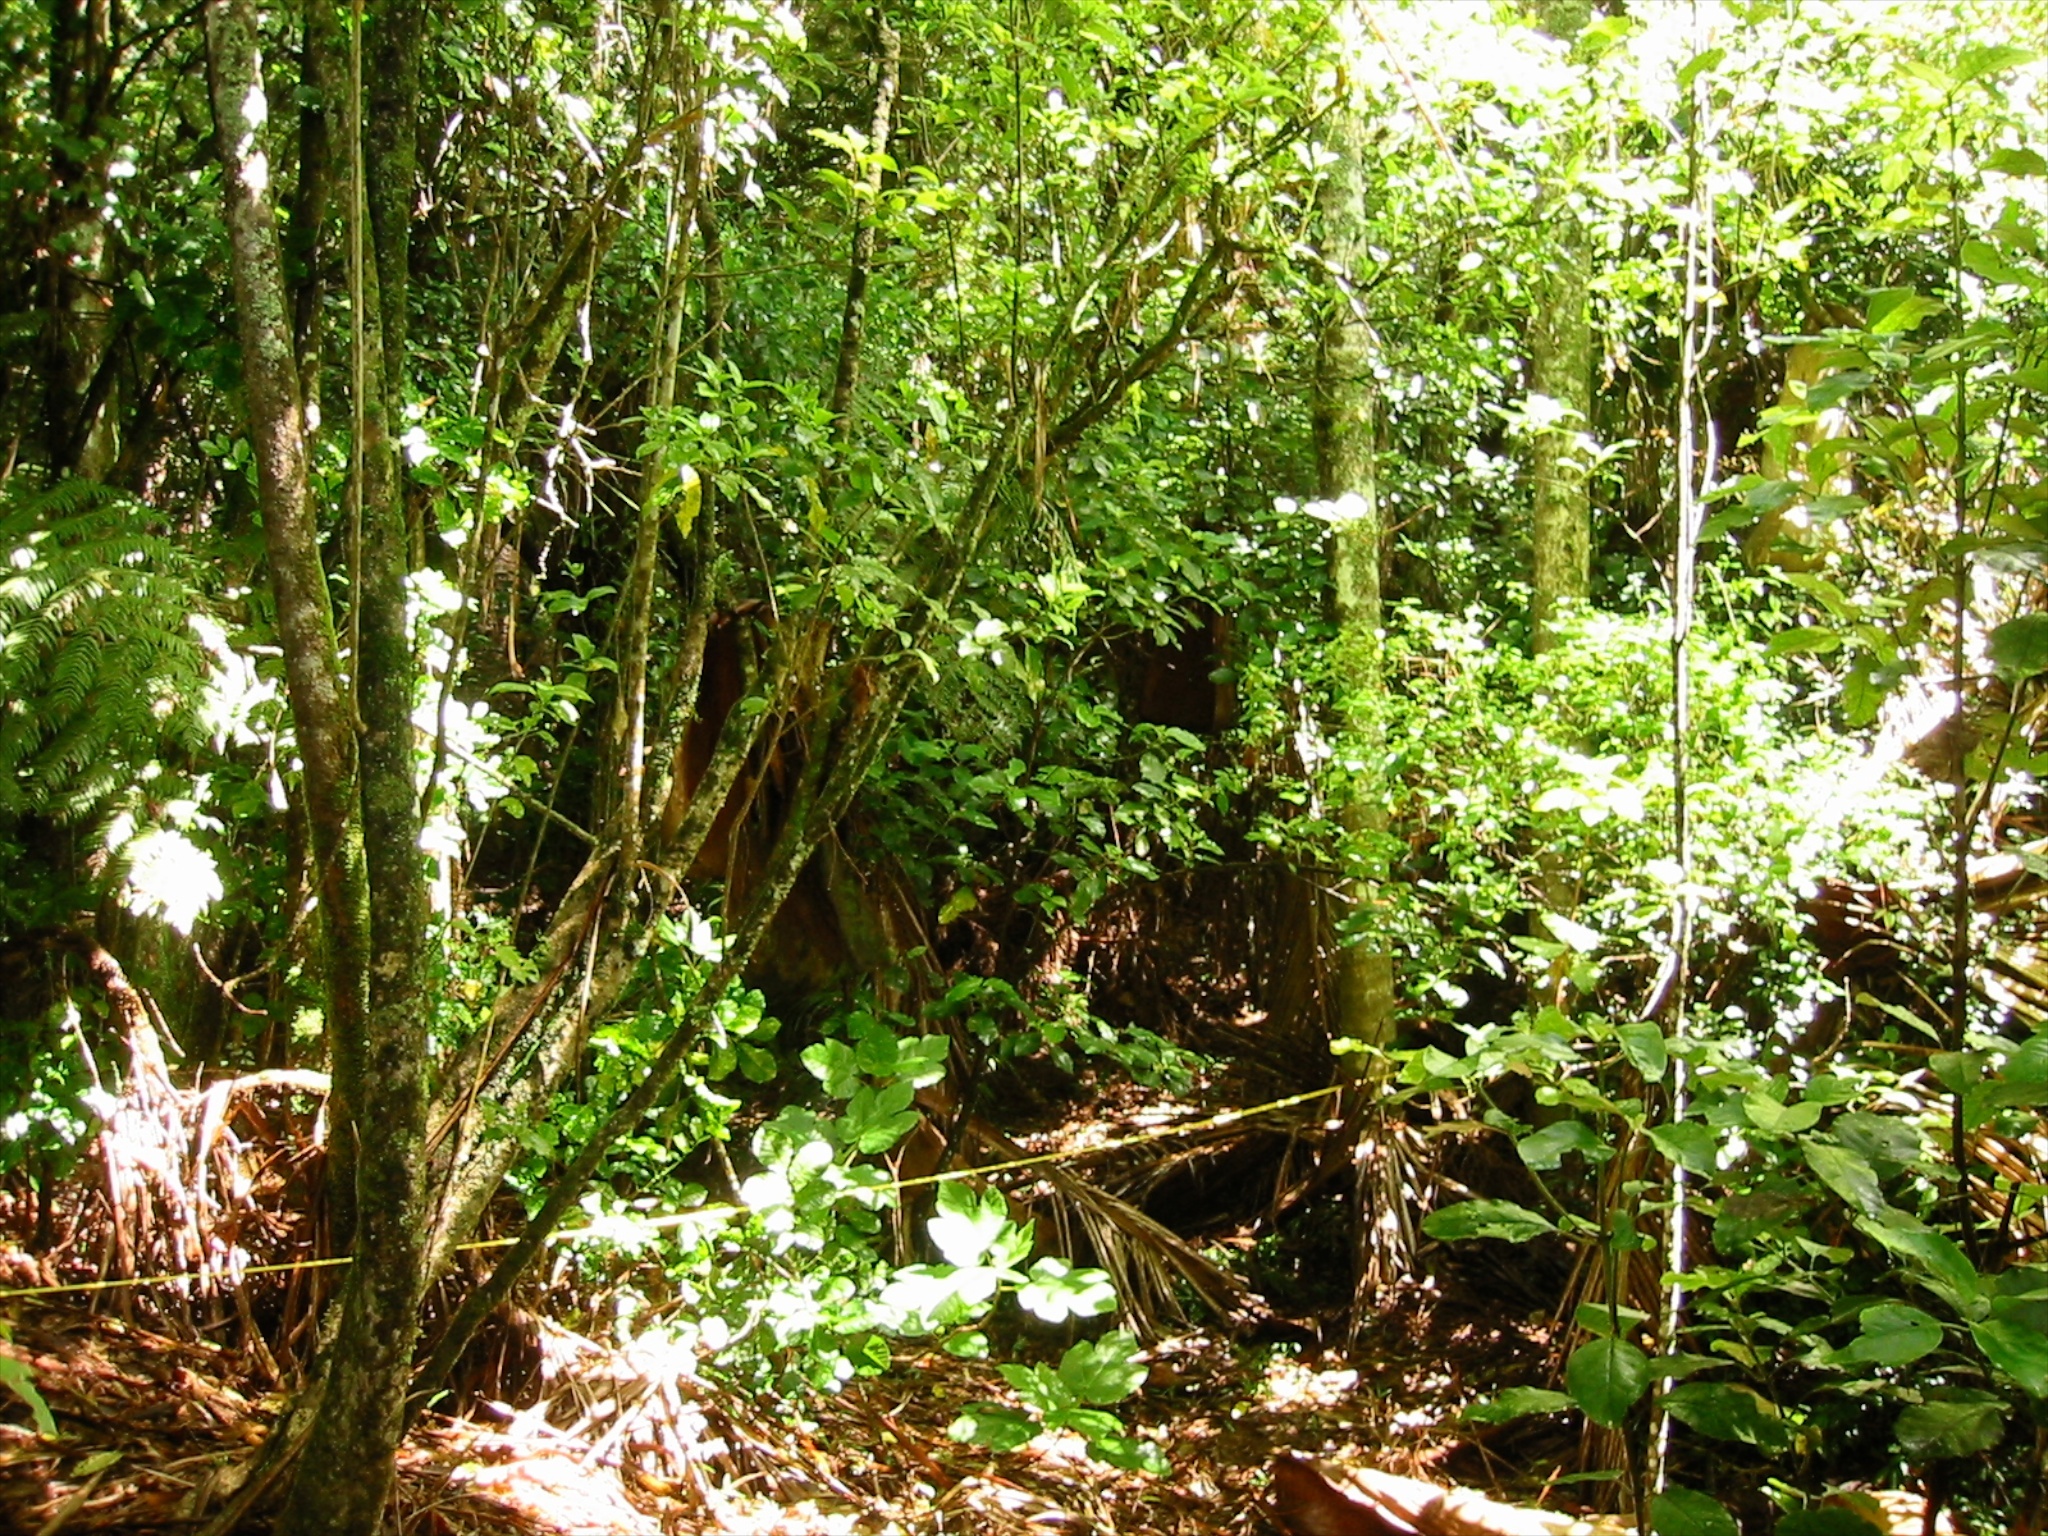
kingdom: Plantae
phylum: Tracheophyta
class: Liliopsida
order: Arecales
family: Arecaceae
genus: Archontophoenix
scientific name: Archontophoenix cunninghamiana
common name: Piccabeen bangalow palm
